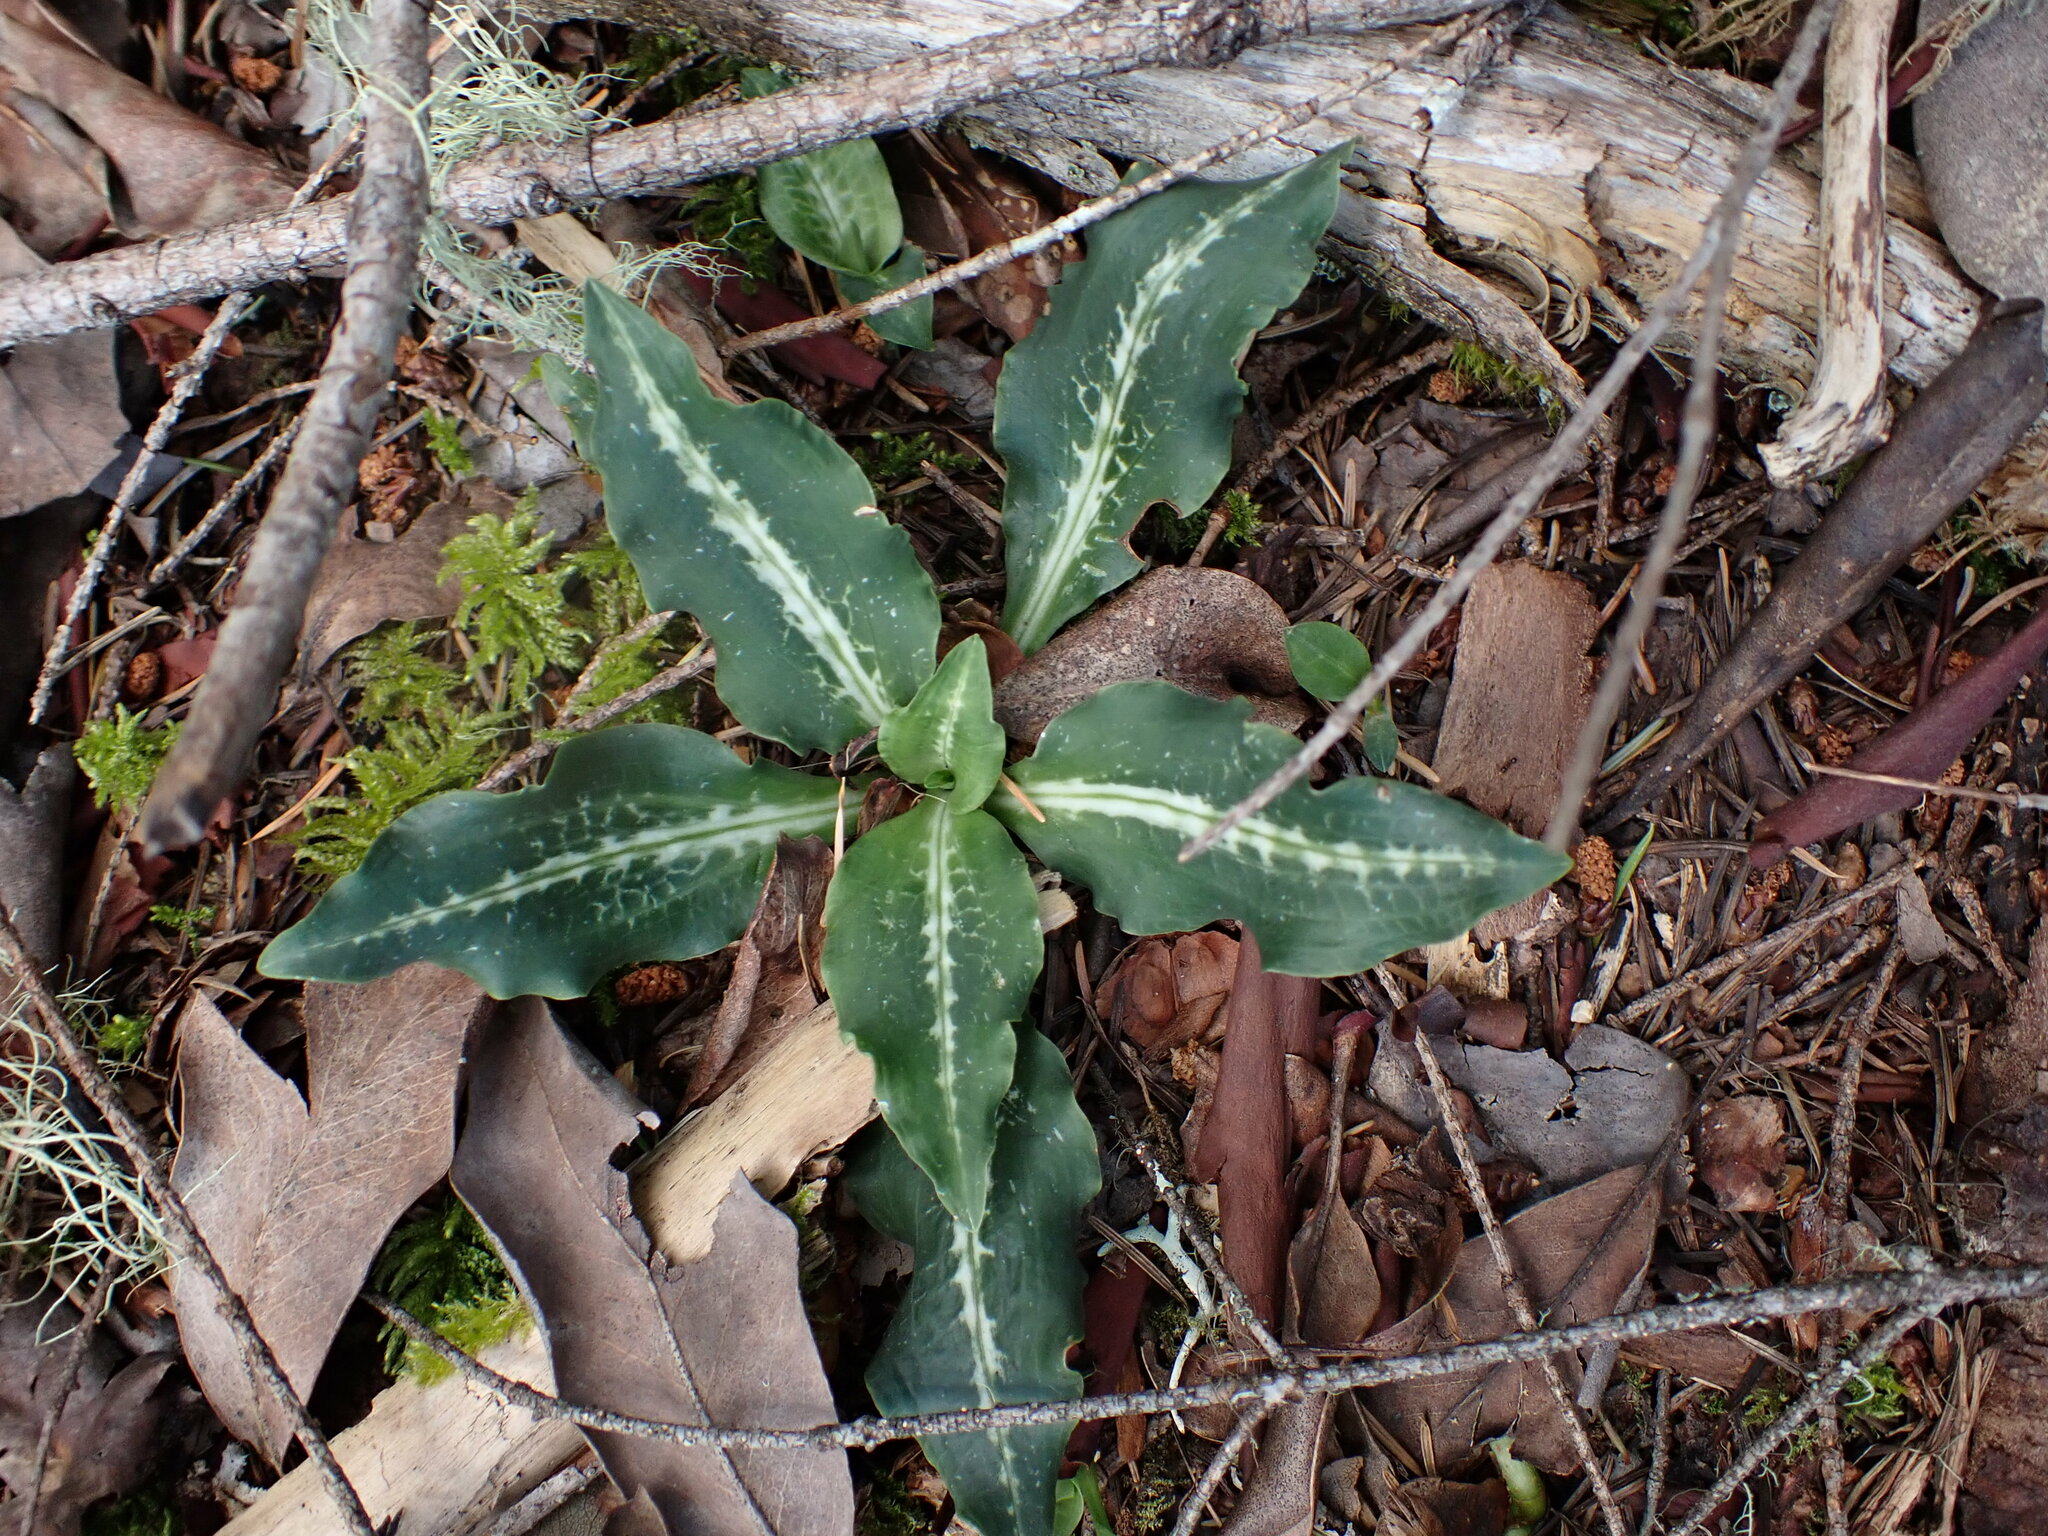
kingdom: Plantae
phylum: Tracheophyta
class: Liliopsida
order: Asparagales
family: Orchidaceae
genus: Goodyera
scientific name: Goodyera oblongifolia
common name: Giant rattlesnake-plantain
